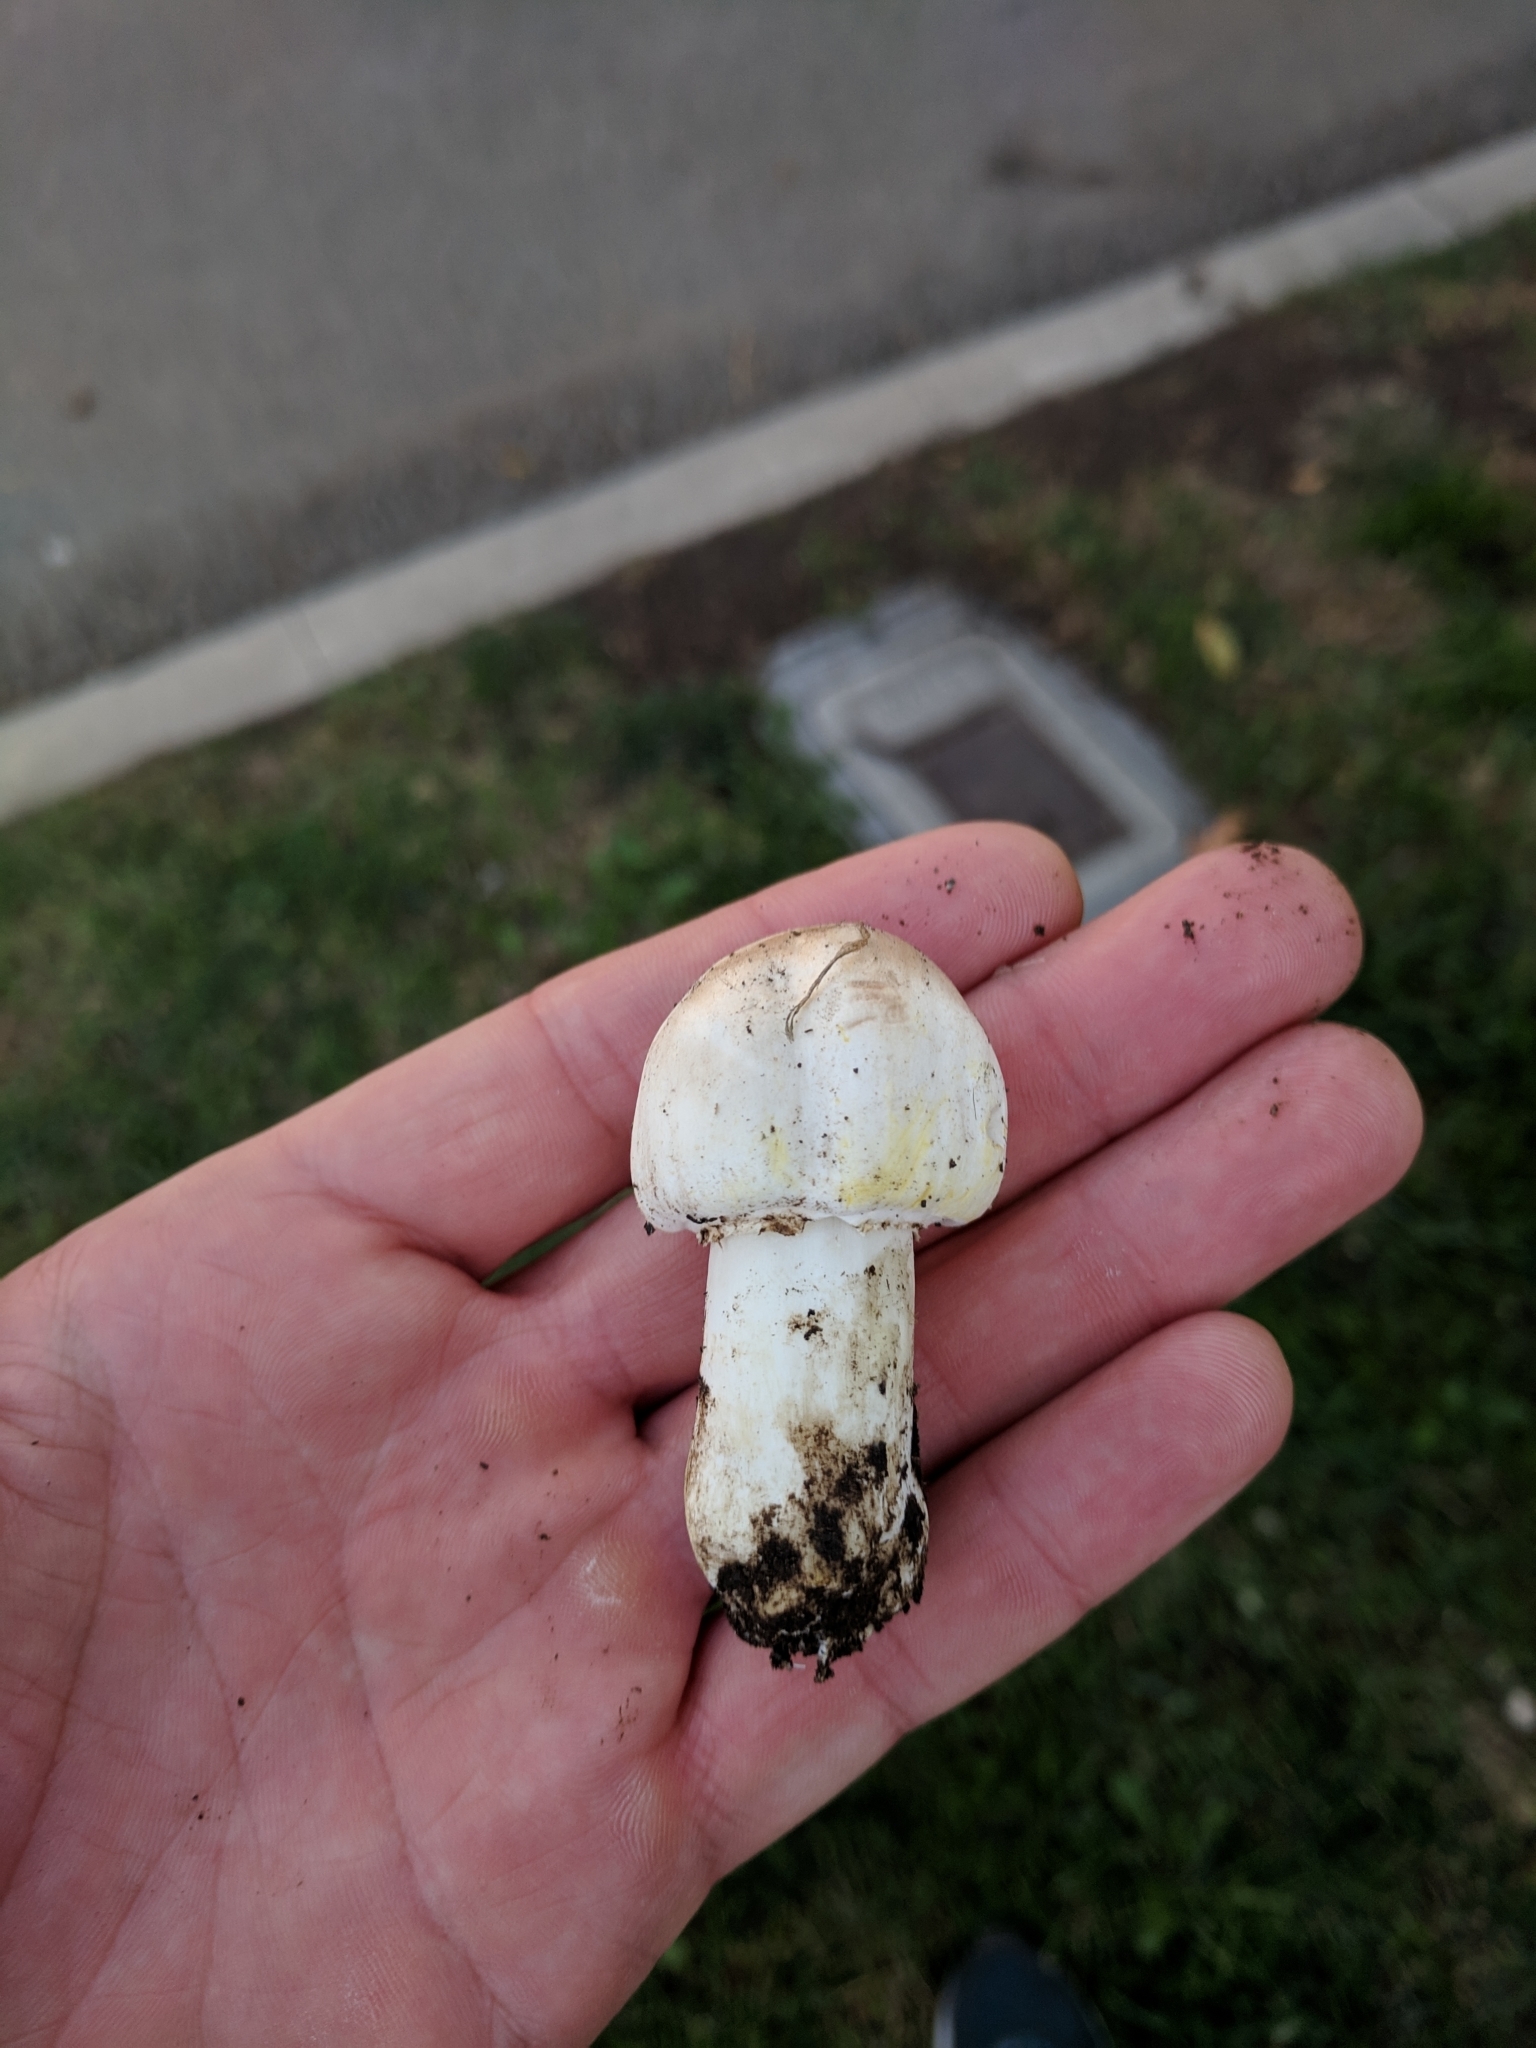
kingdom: Fungi
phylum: Basidiomycota
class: Agaricomycetes
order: Agaricales
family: Agaricaceae
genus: Agaricus
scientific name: Agaricus xanthodermus
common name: Yellow stainer
